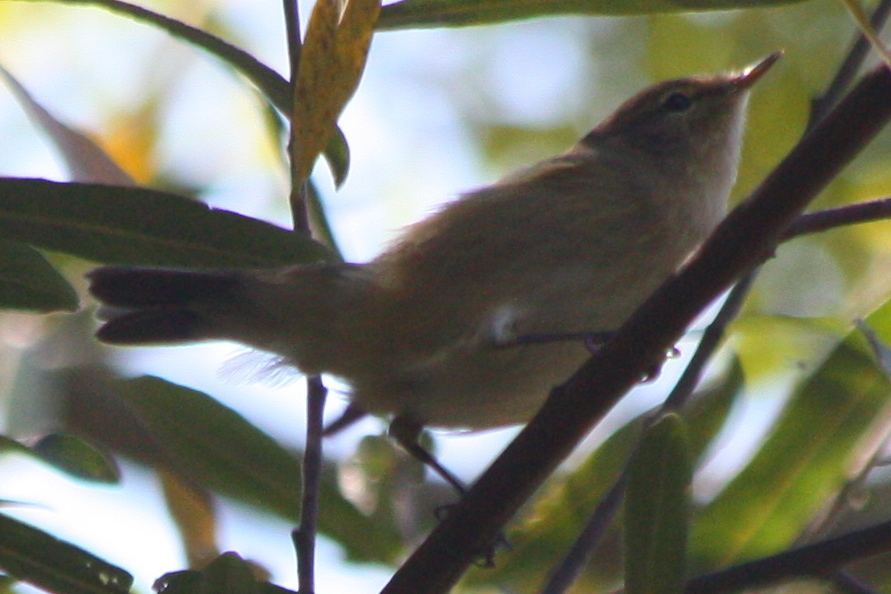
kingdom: Animalia
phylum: Chordata
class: Aves
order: Passeriformes
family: Phylloscopidae
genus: Phylloscopus
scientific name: Phylloscopus collybita
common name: Common chiffchaff
